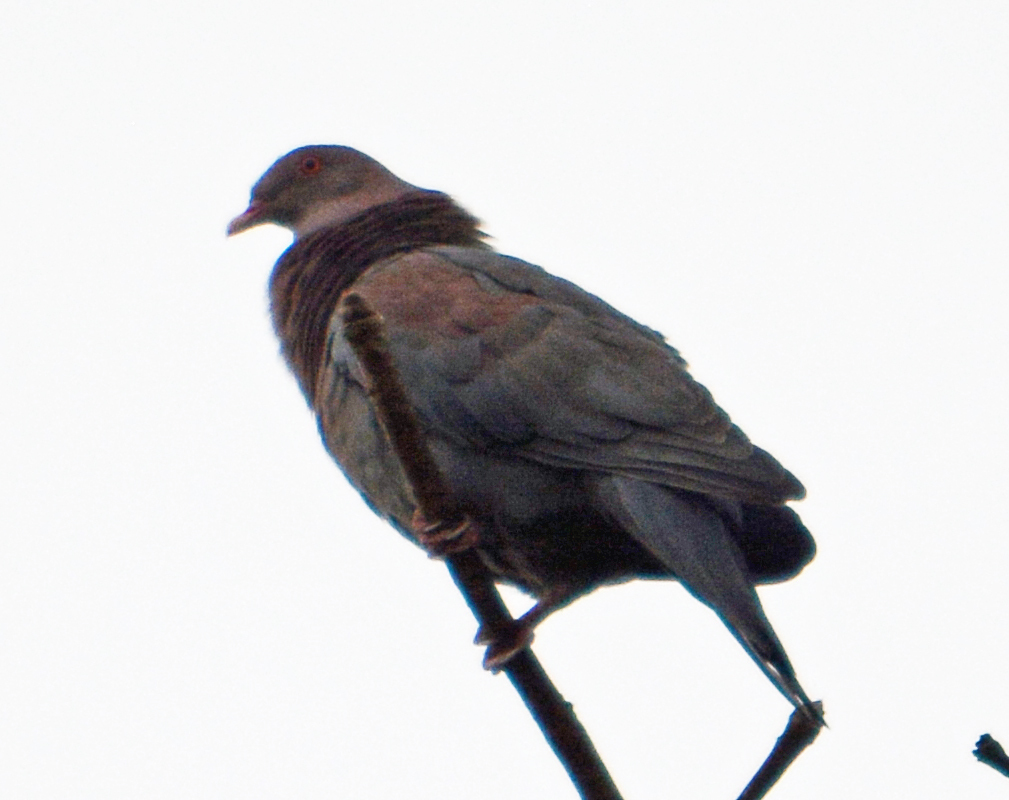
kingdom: Animalia
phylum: Chordata
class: Aves
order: Columbiformes
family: Columbidae
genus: Patagioenas
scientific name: Patagioenas flavirostris
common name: Red-billed pigeon
